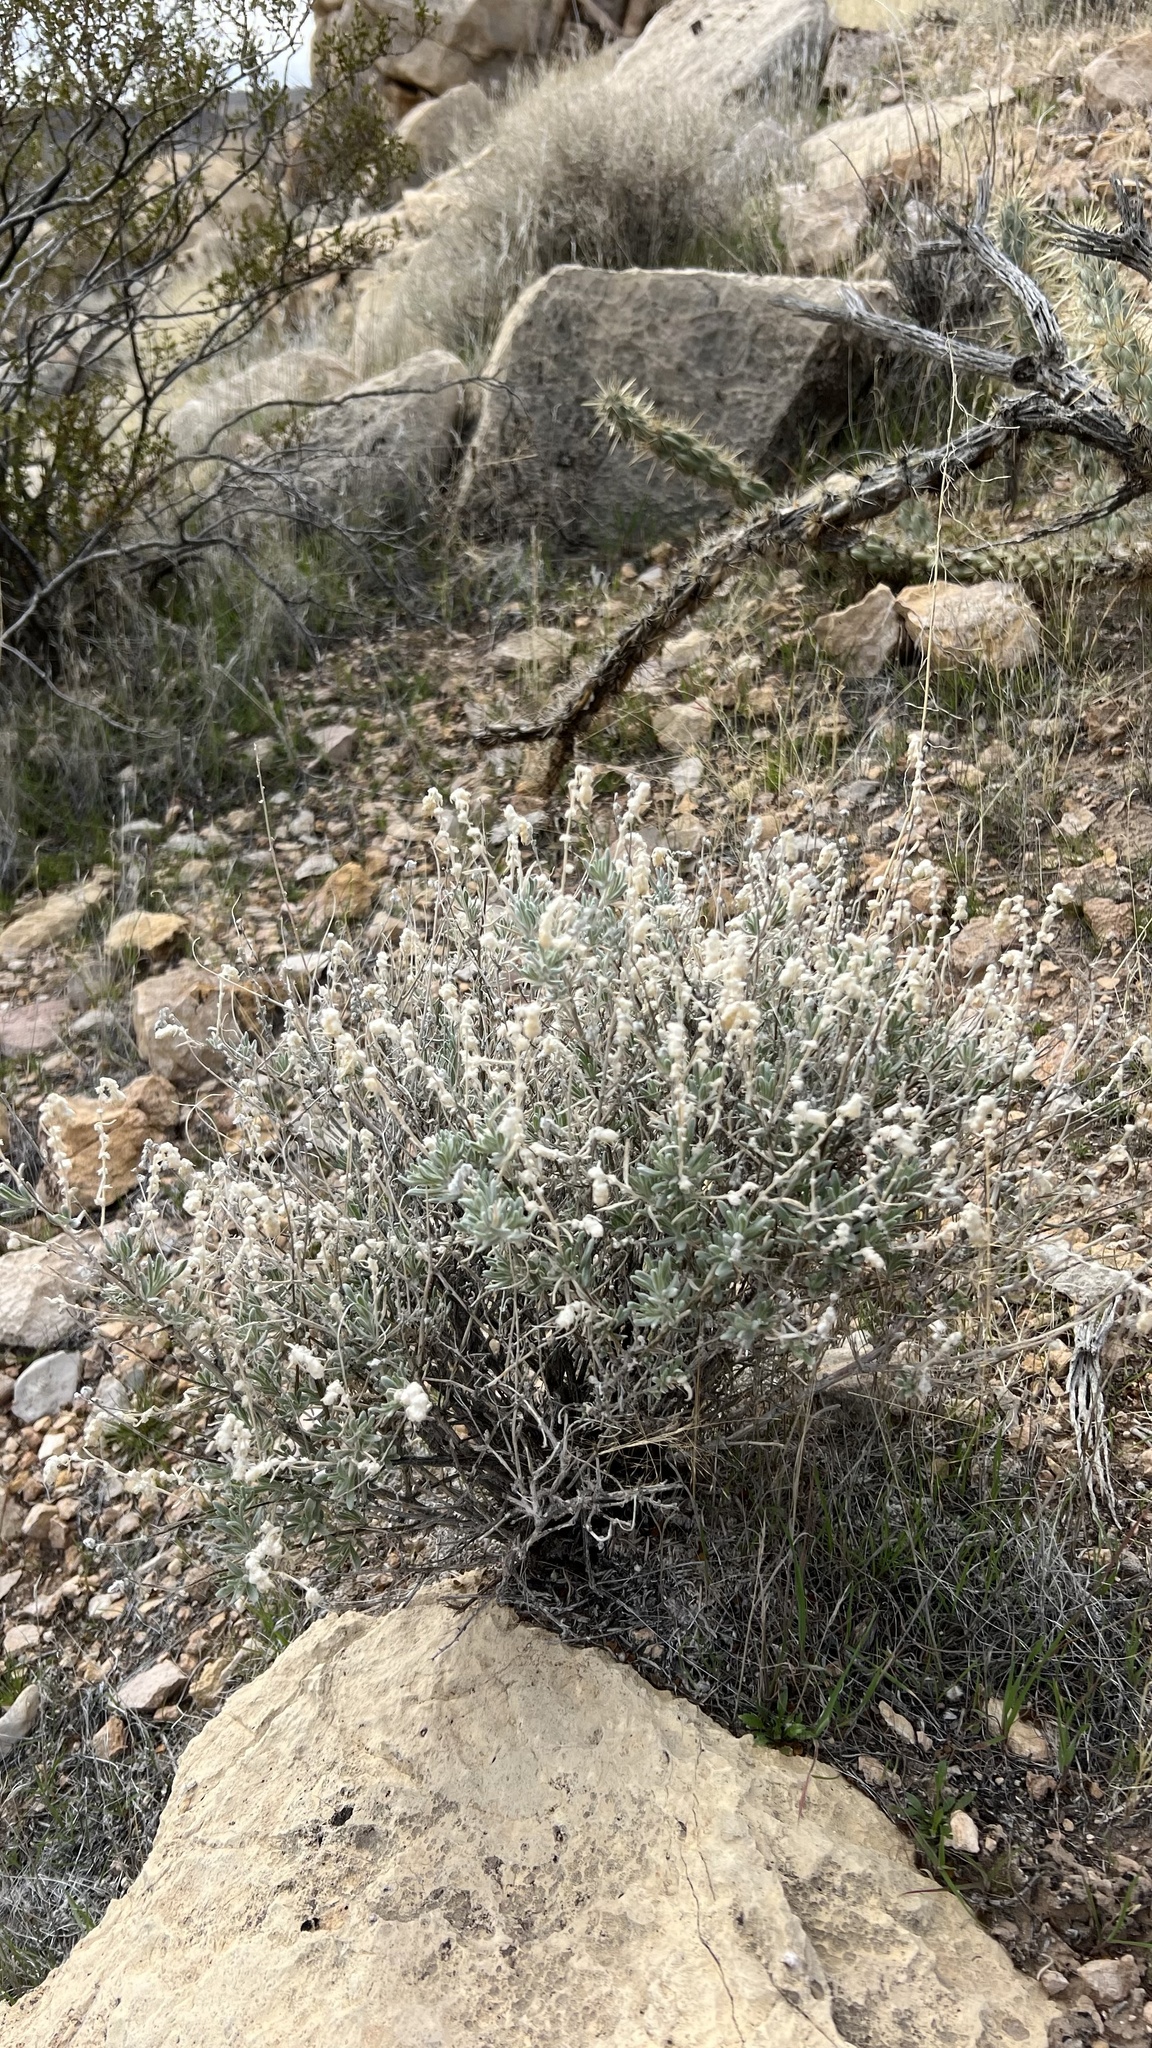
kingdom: Plantae
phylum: Tracheophyta
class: Magnoliopsida
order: Caryophyllales
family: Amaranthaceae
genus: Krascheninnikovia
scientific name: Krascheninnikovia lanata
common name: Winterfat
